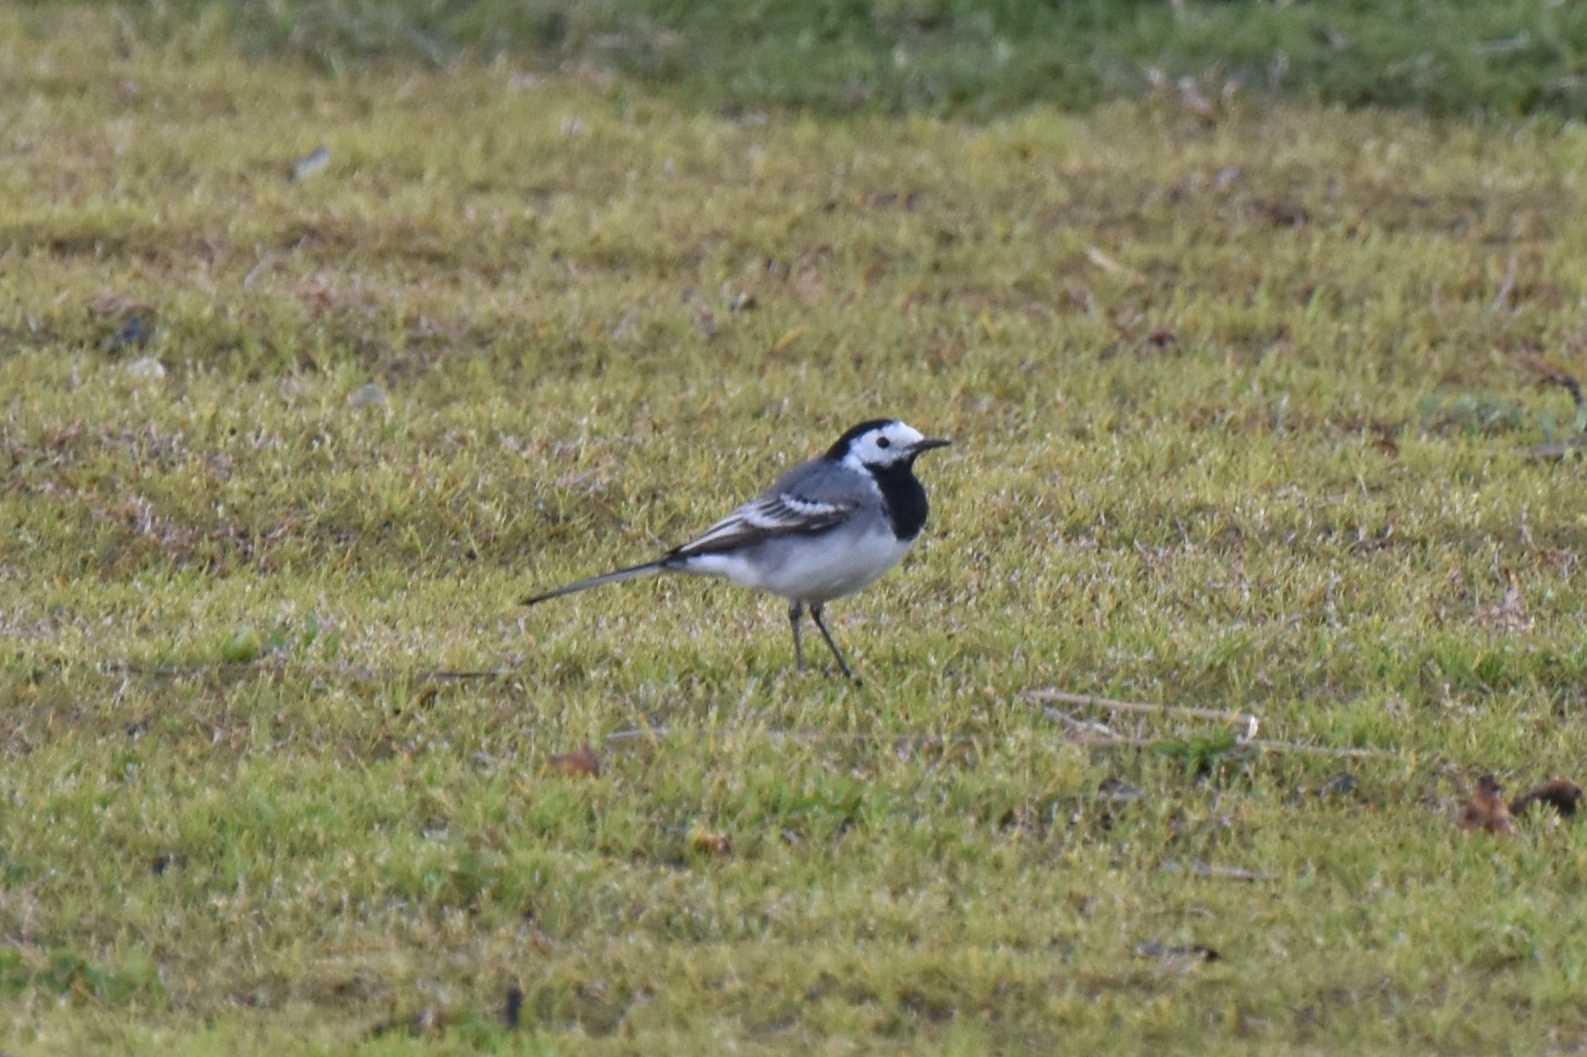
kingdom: Animalia
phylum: Chordata
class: Aves
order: Passeriformes
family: Motacillidae
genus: Motacilla
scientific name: Motacilla alba
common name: White wagtail
